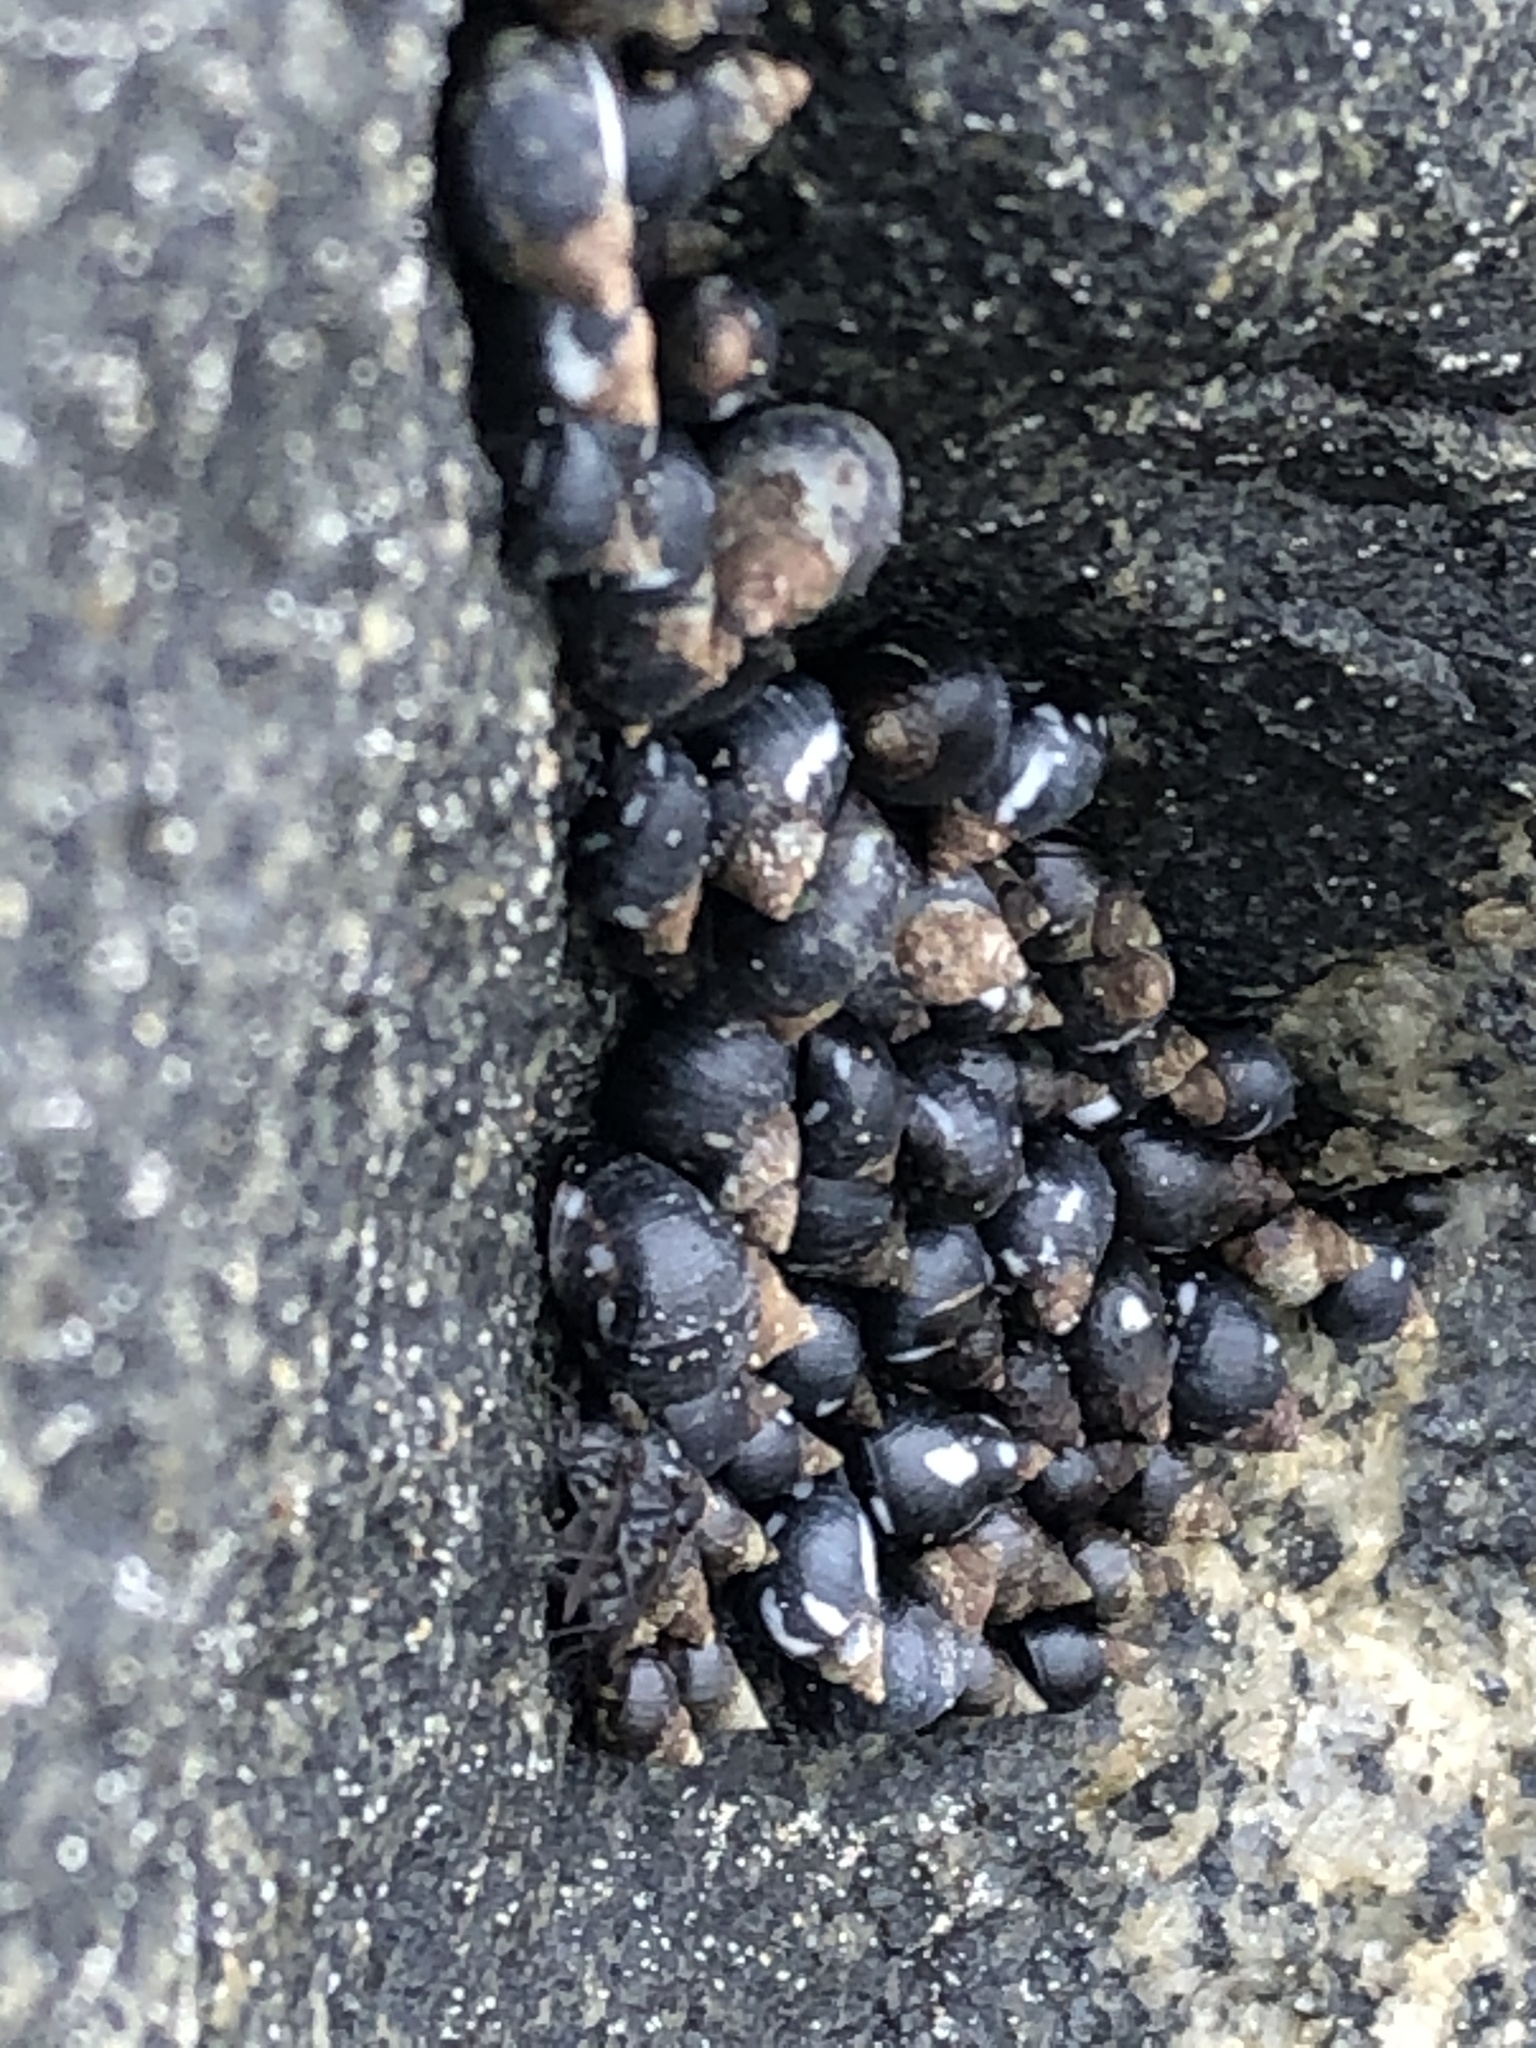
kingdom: Animalia
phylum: Mollusca
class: Gastropoda
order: Littorinimorpha
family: Littorinidae
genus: Echinolittorina
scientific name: Echinolittorina peruviana
